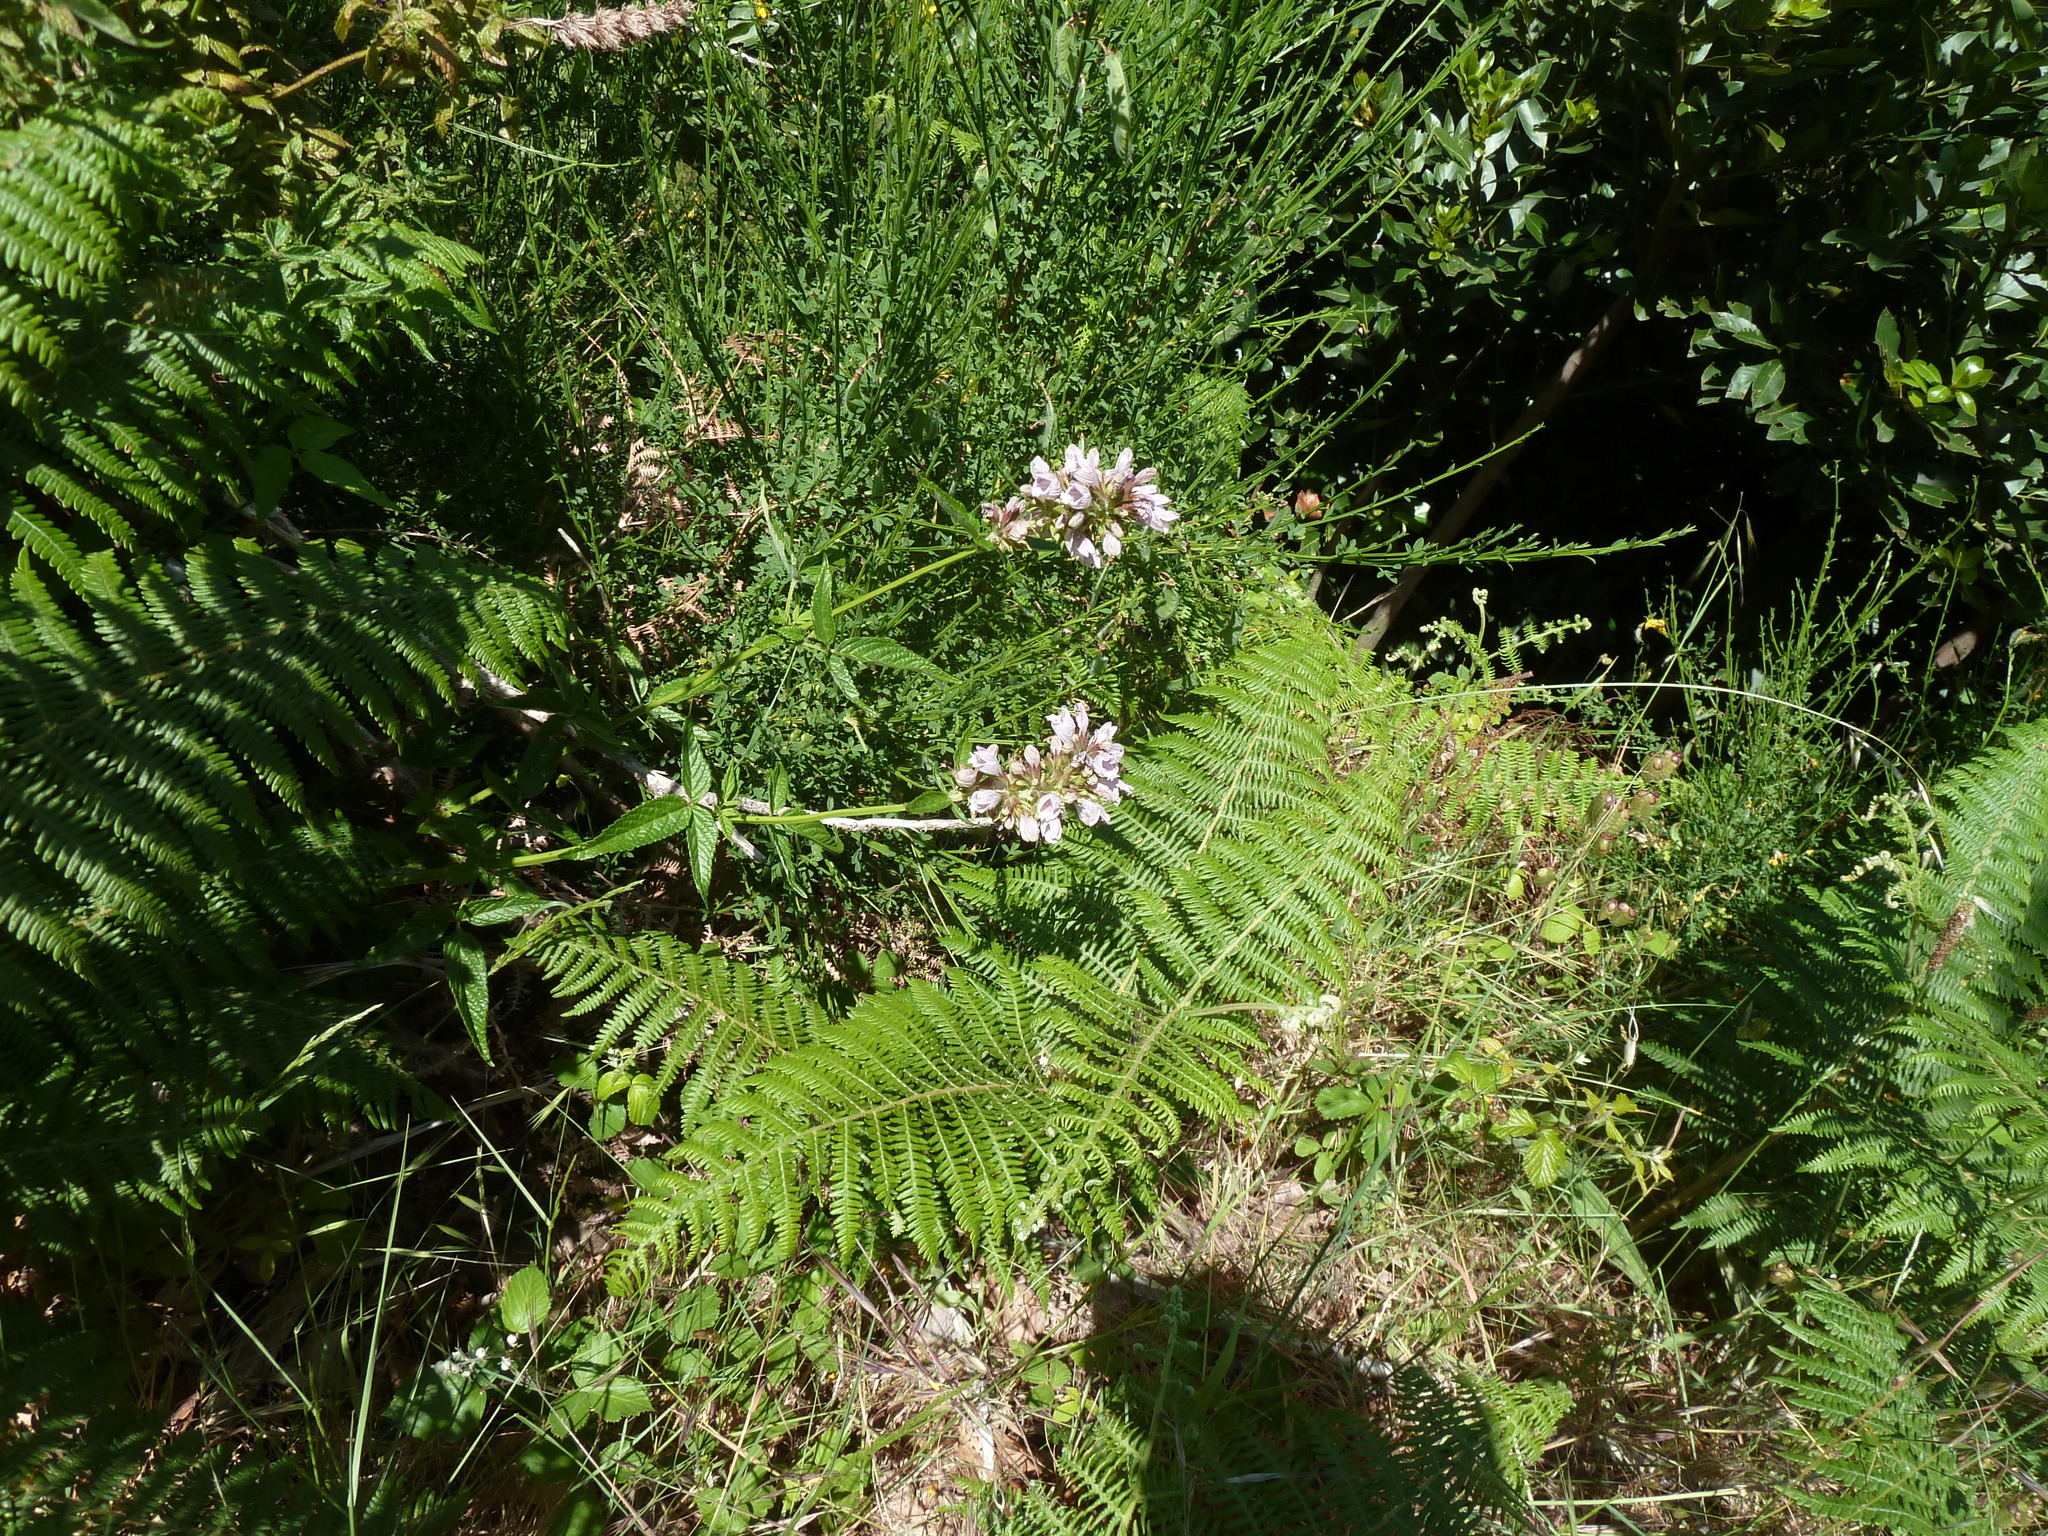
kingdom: Plantae
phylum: Tracheophyta
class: Magnoliopsida
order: Lamiales
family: Lamiaceae
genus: Cedronella
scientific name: Cedronella canariensis
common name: Canary islands balm
